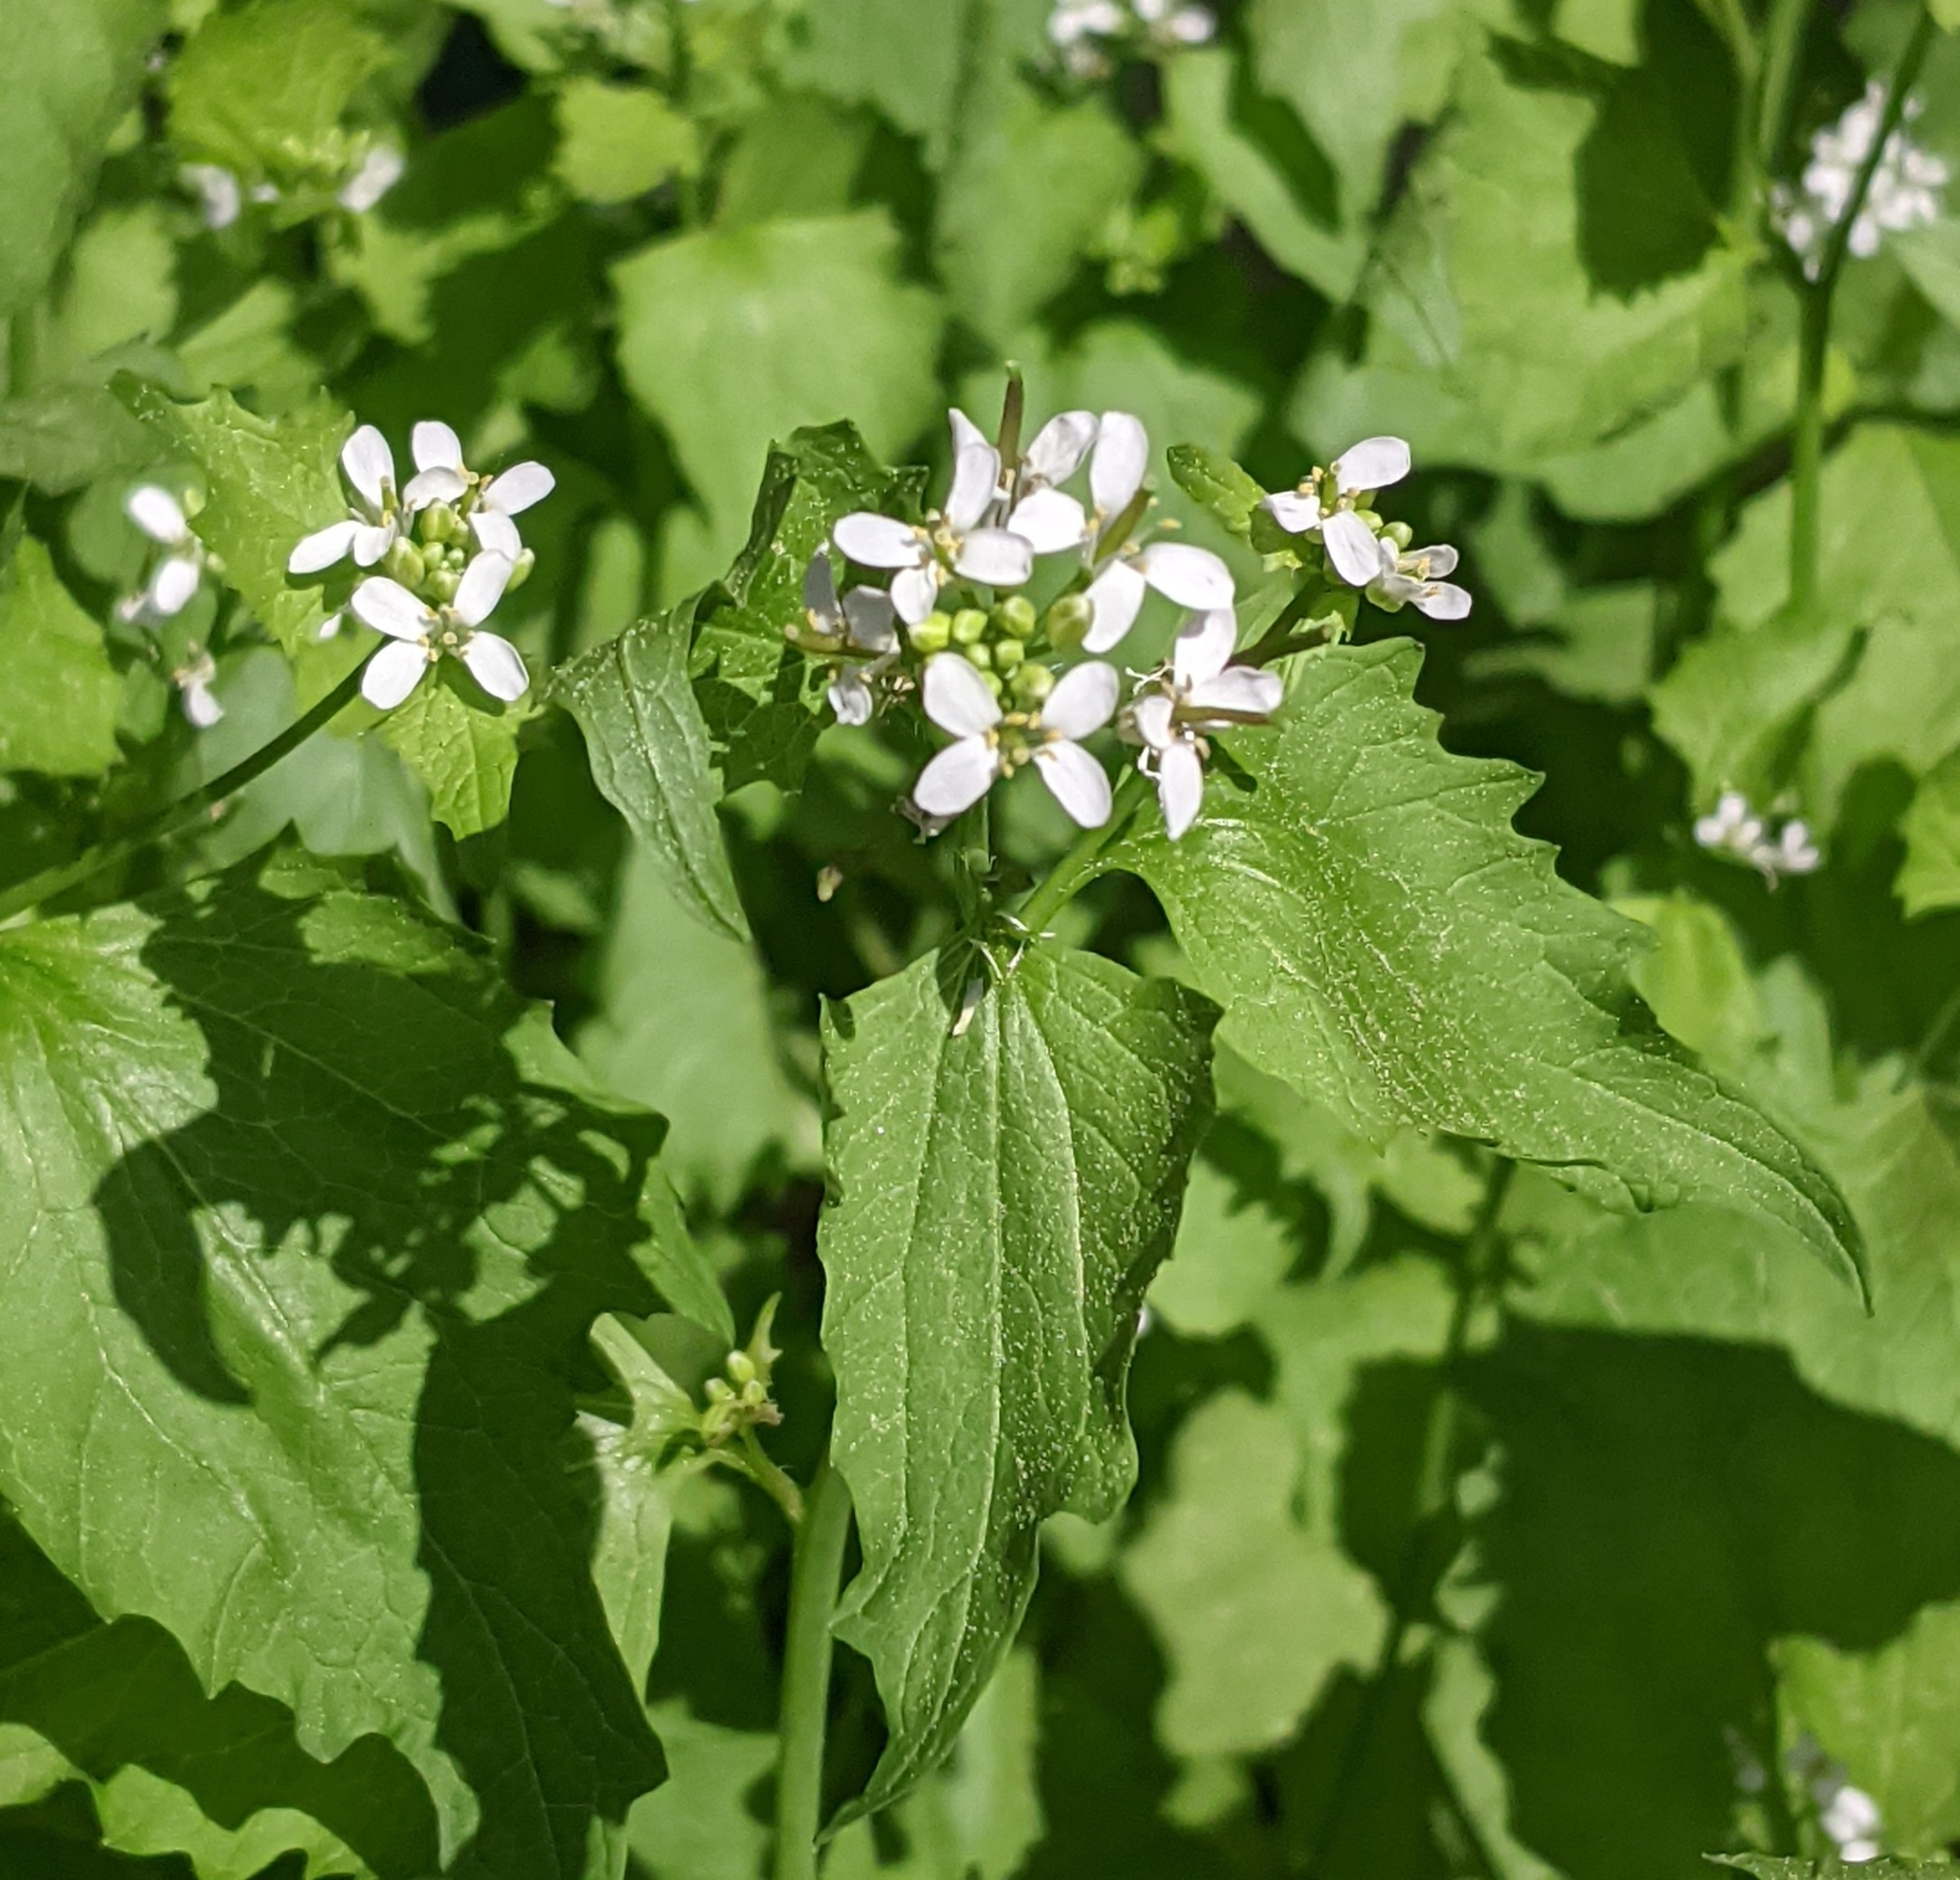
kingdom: Plantae
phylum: Tracheophyta
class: Magnoliopsida
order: Brassicales
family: Brassicaceae
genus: Alliaria
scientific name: Alliaria petiolata
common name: Garlic mustard
